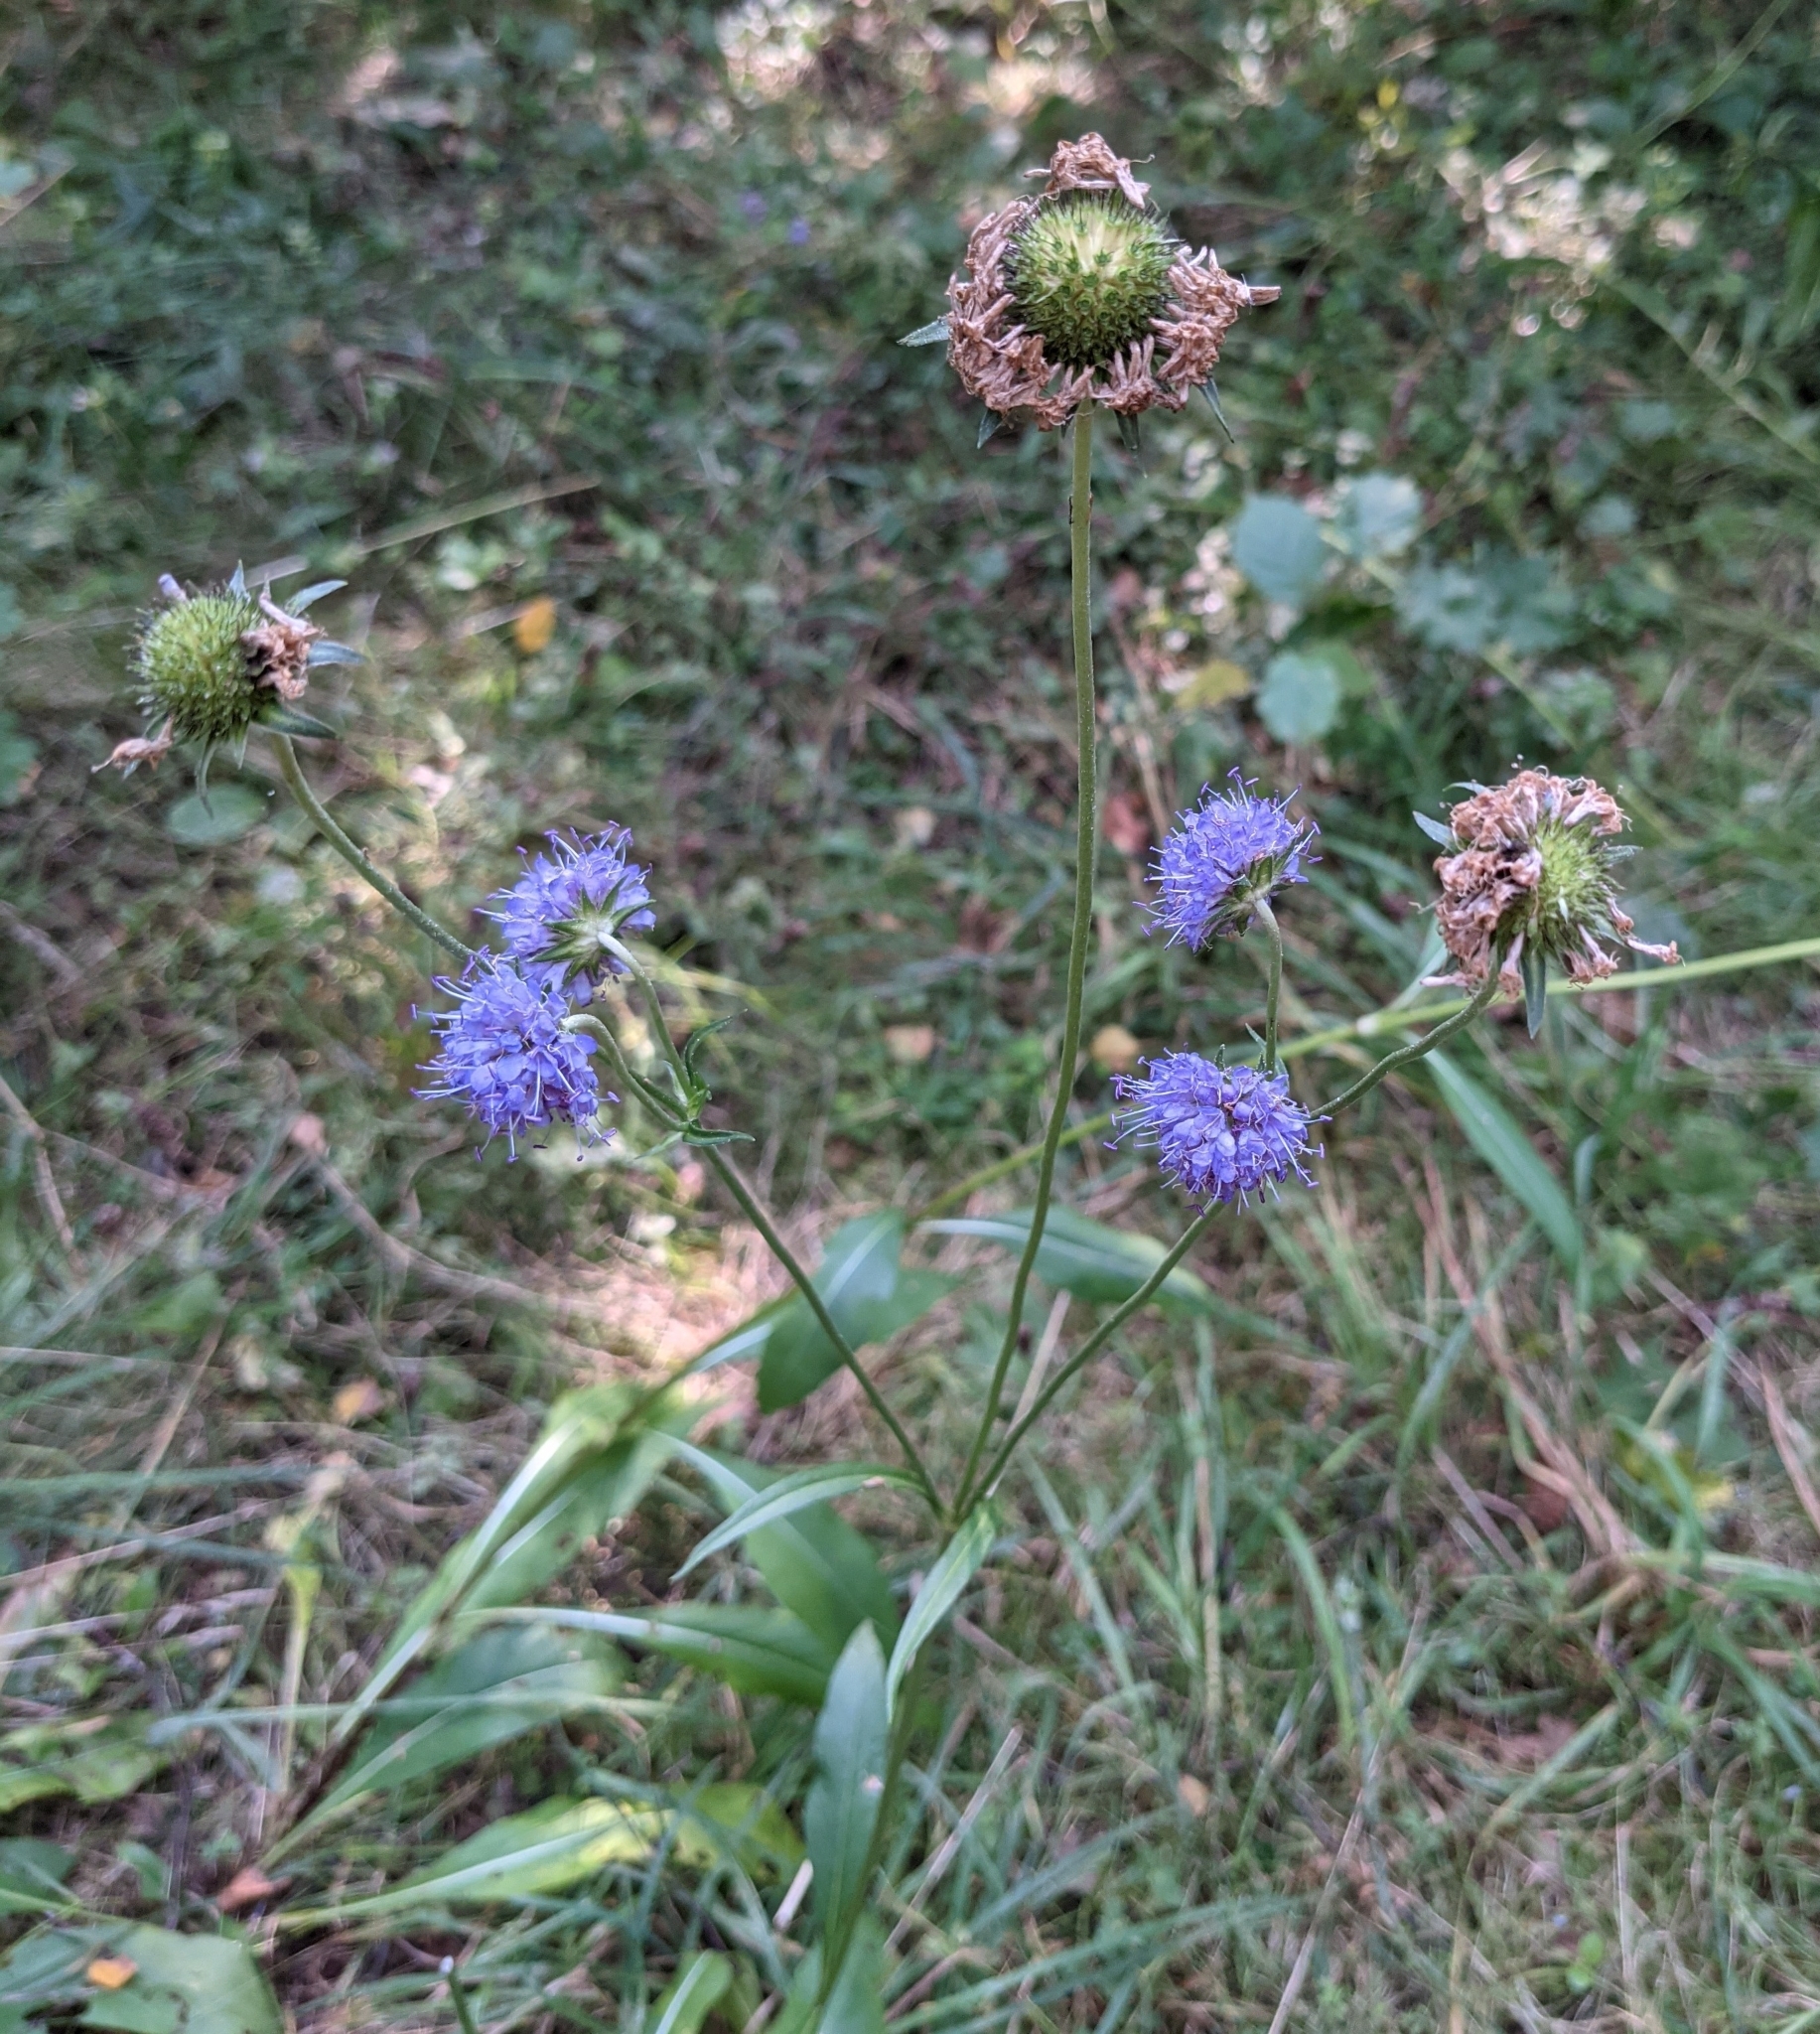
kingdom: Plantae
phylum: Tracheophyta
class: Magnoliopsida
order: Dipsacales
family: Caprifoliaceae
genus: Succisa
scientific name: Succisa pratensis
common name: Devil's-bit
